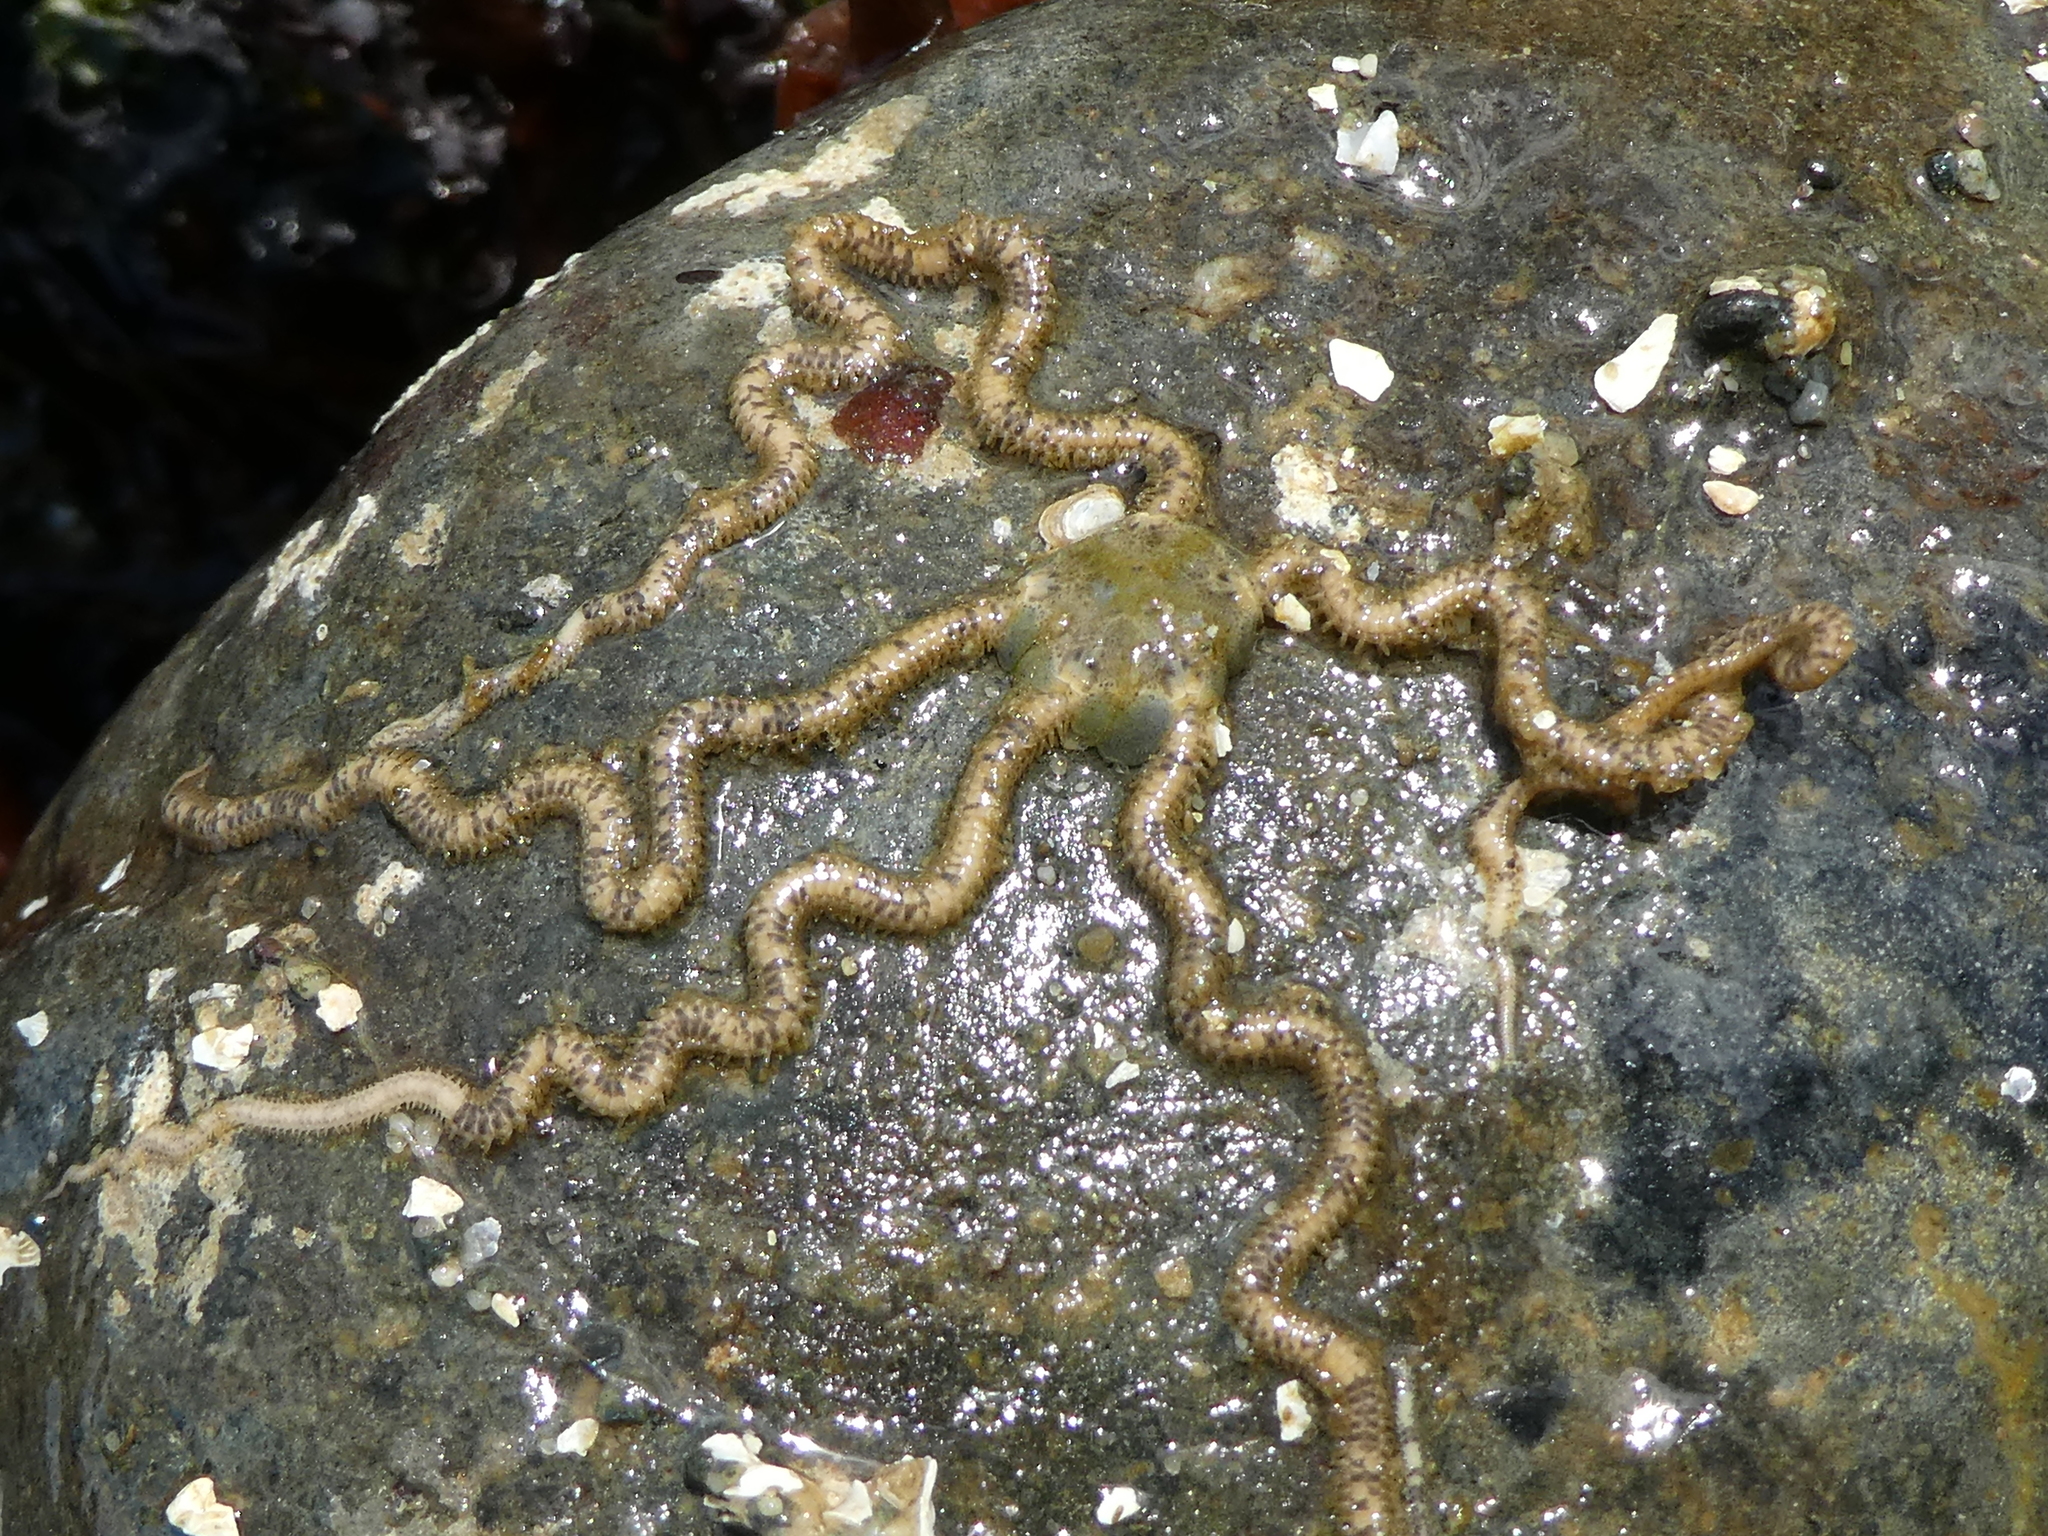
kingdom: Animalia
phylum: Echinodermata
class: Ophiuroidea
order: Amphilepidida
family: Amphiuridae
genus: Amphiodia
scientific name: Amphiodia occidentalis
